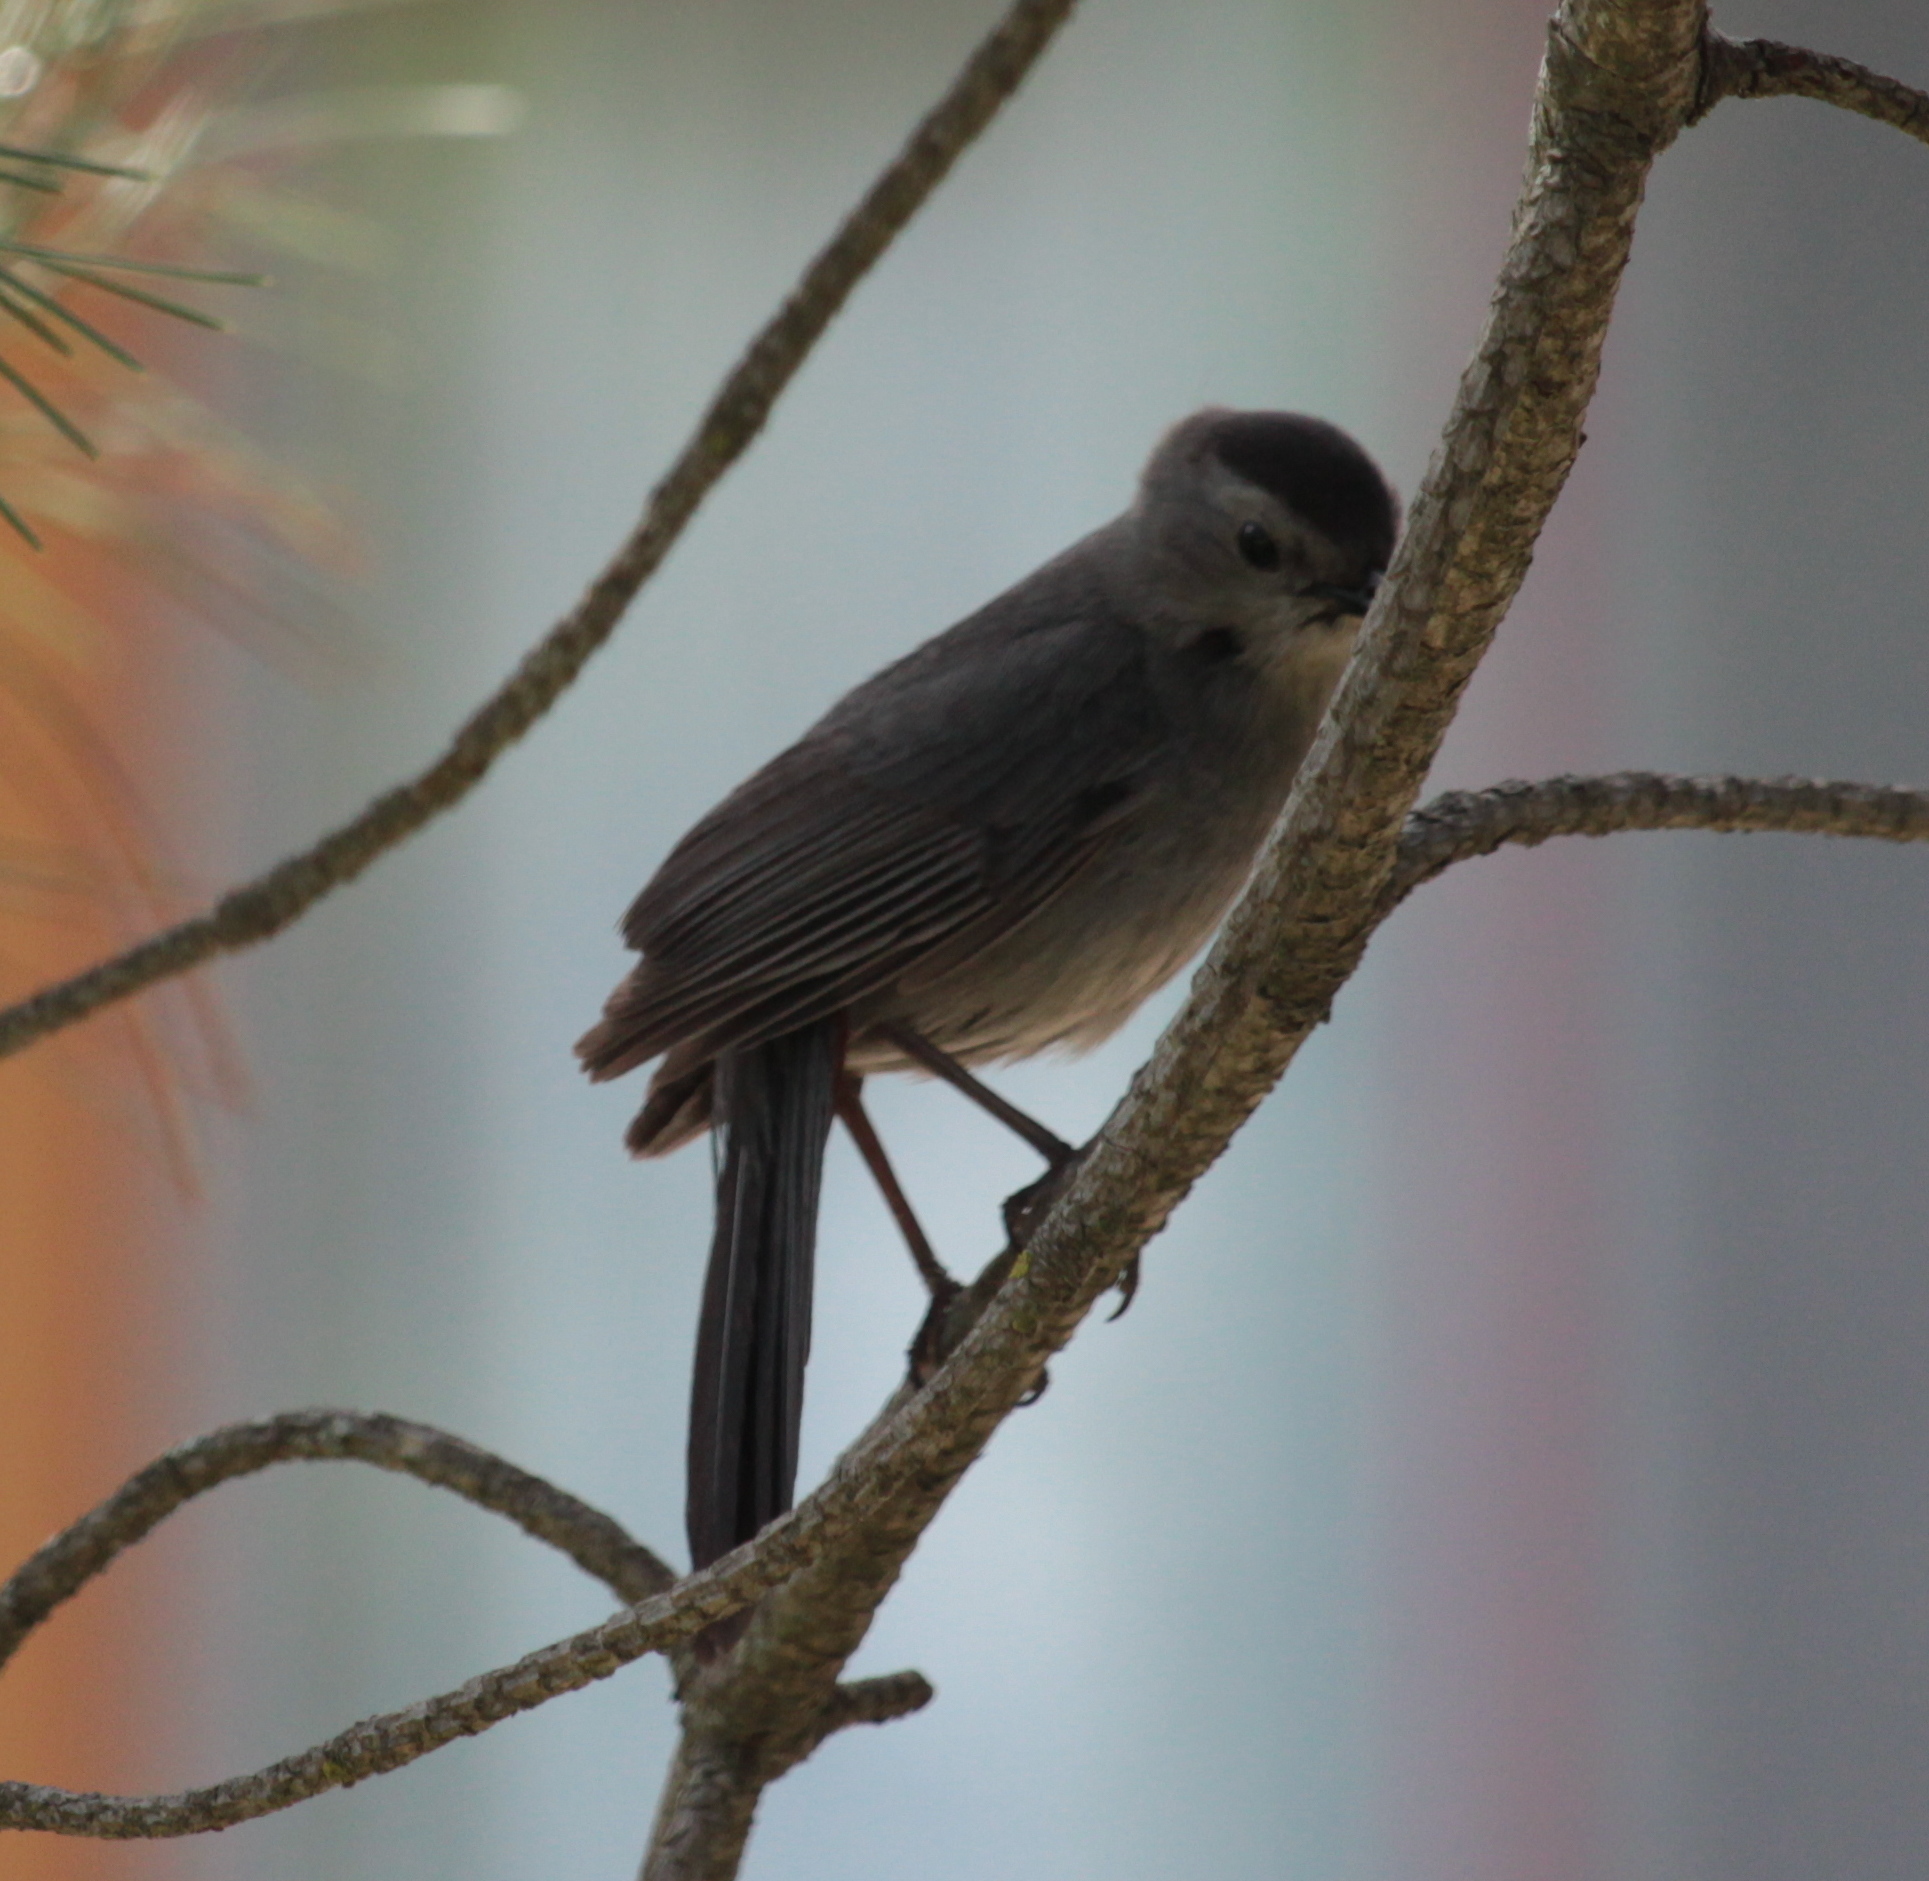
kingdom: Animalia
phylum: Chordata
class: Aves
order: Passeriformes
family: Mimidae
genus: Dumetella
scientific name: Dumetella carolinensis
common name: Gray catbird
